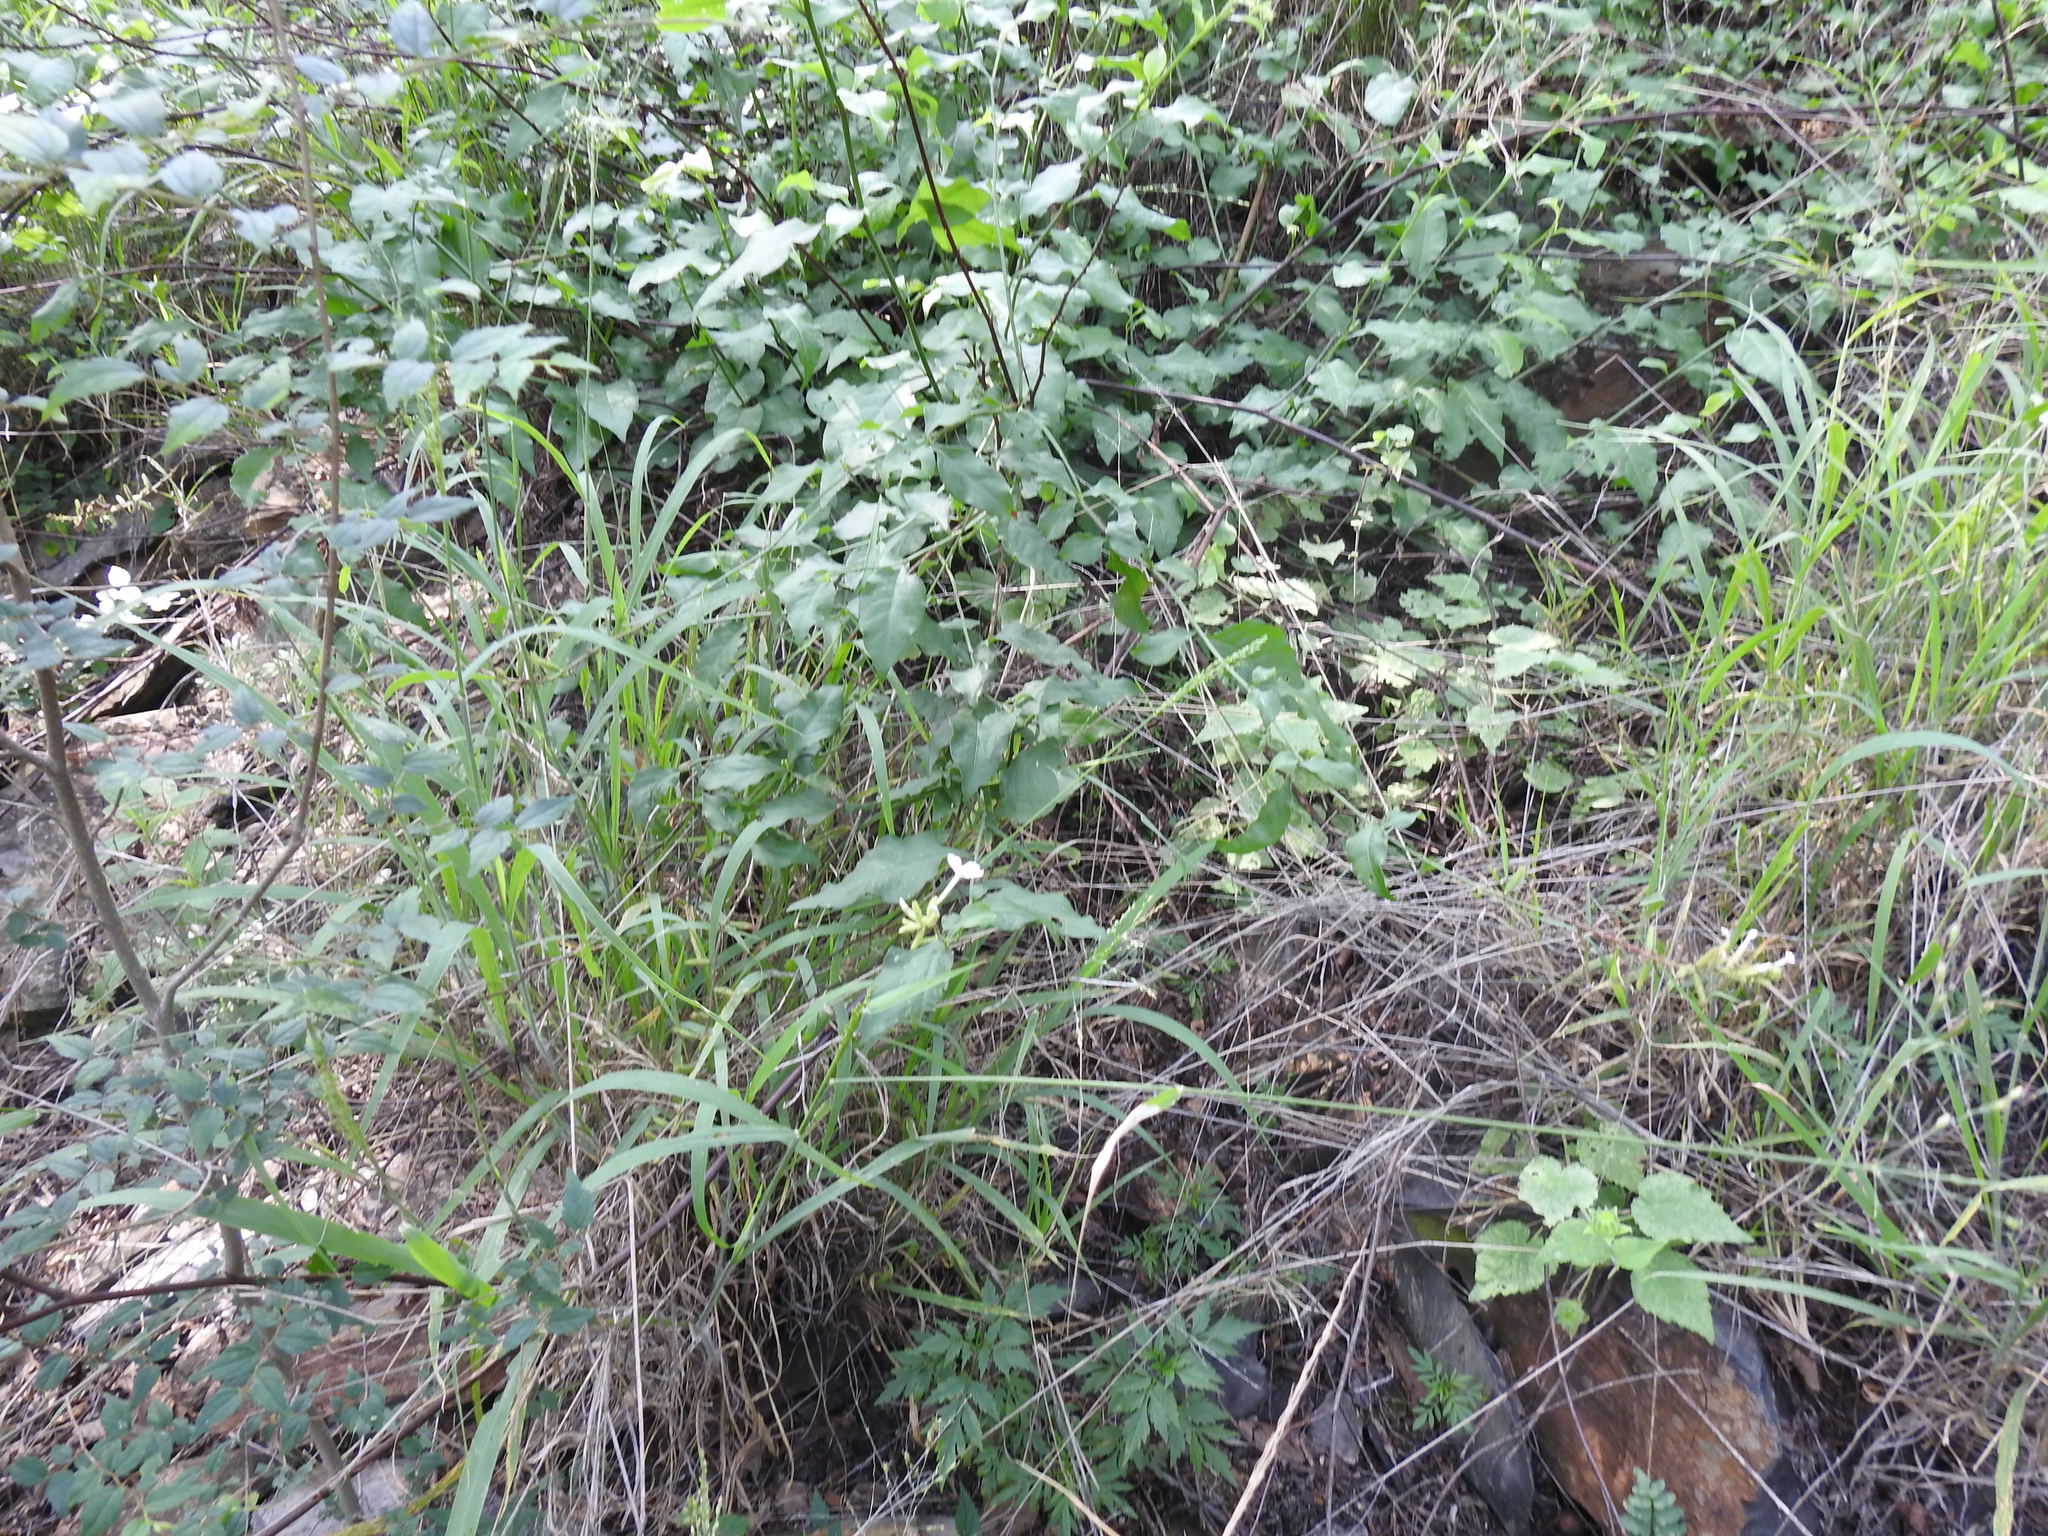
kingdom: Plantae
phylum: Tracheophyta
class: Magnoliopsida
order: Caryophyllales
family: Plumbaginaceae
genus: Plumbago
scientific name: Plumbago zeylanica
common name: Doctorbush
